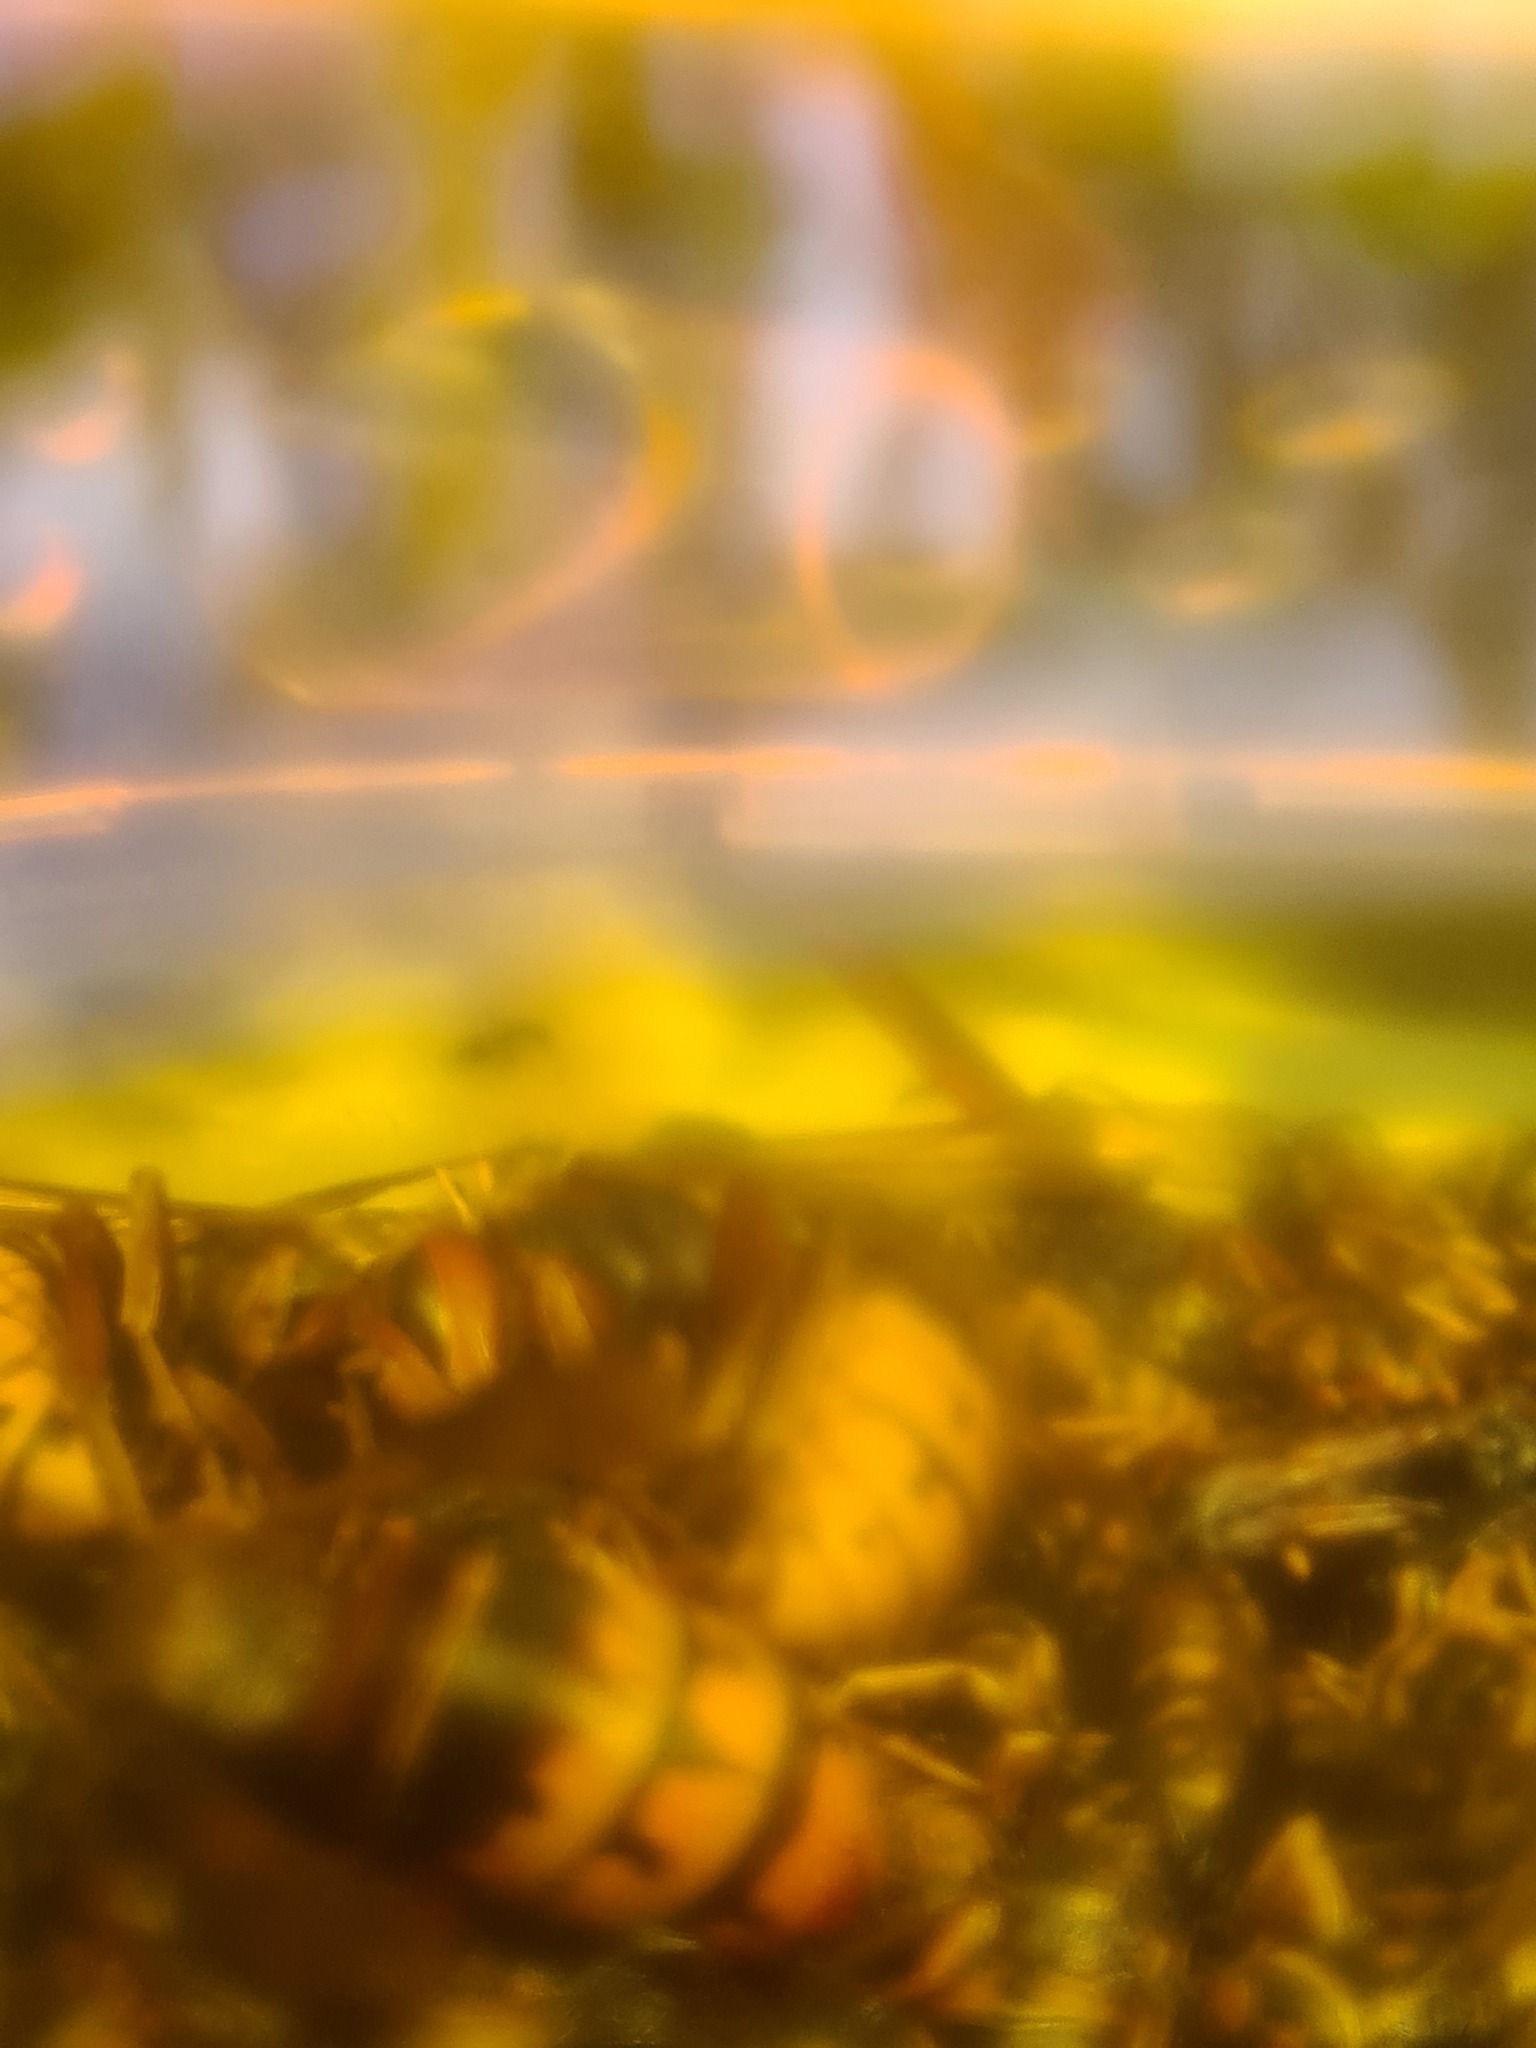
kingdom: Animalia
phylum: Arthropoda
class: Insecta
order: Hymenoptera
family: Vespidae
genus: Vespa
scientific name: Vespa crabro
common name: Hornet
